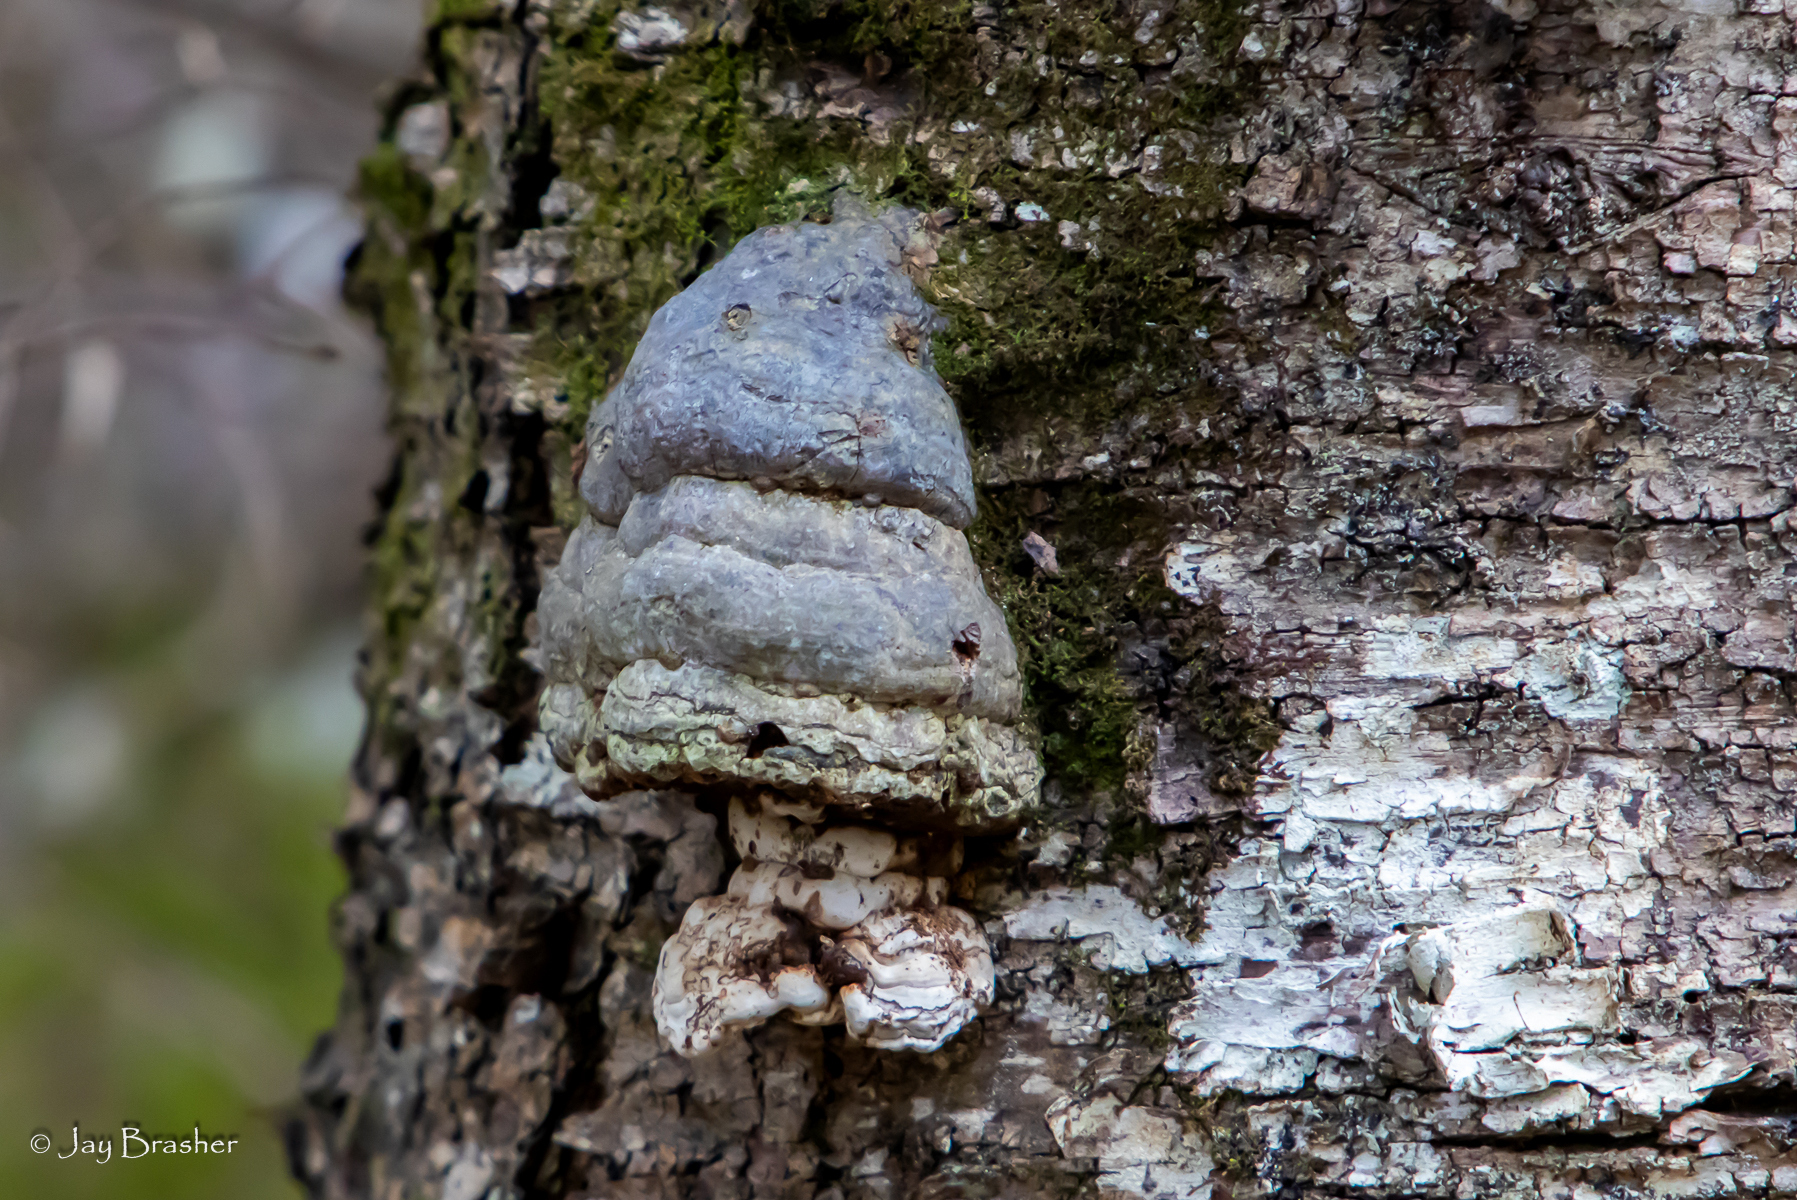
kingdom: Fungi
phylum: Basidiomycota
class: Agaricomycetes
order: Polyporales
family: Polyporaceae
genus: Fomes
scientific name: Fomes fomentarius
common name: Hoof fungus
